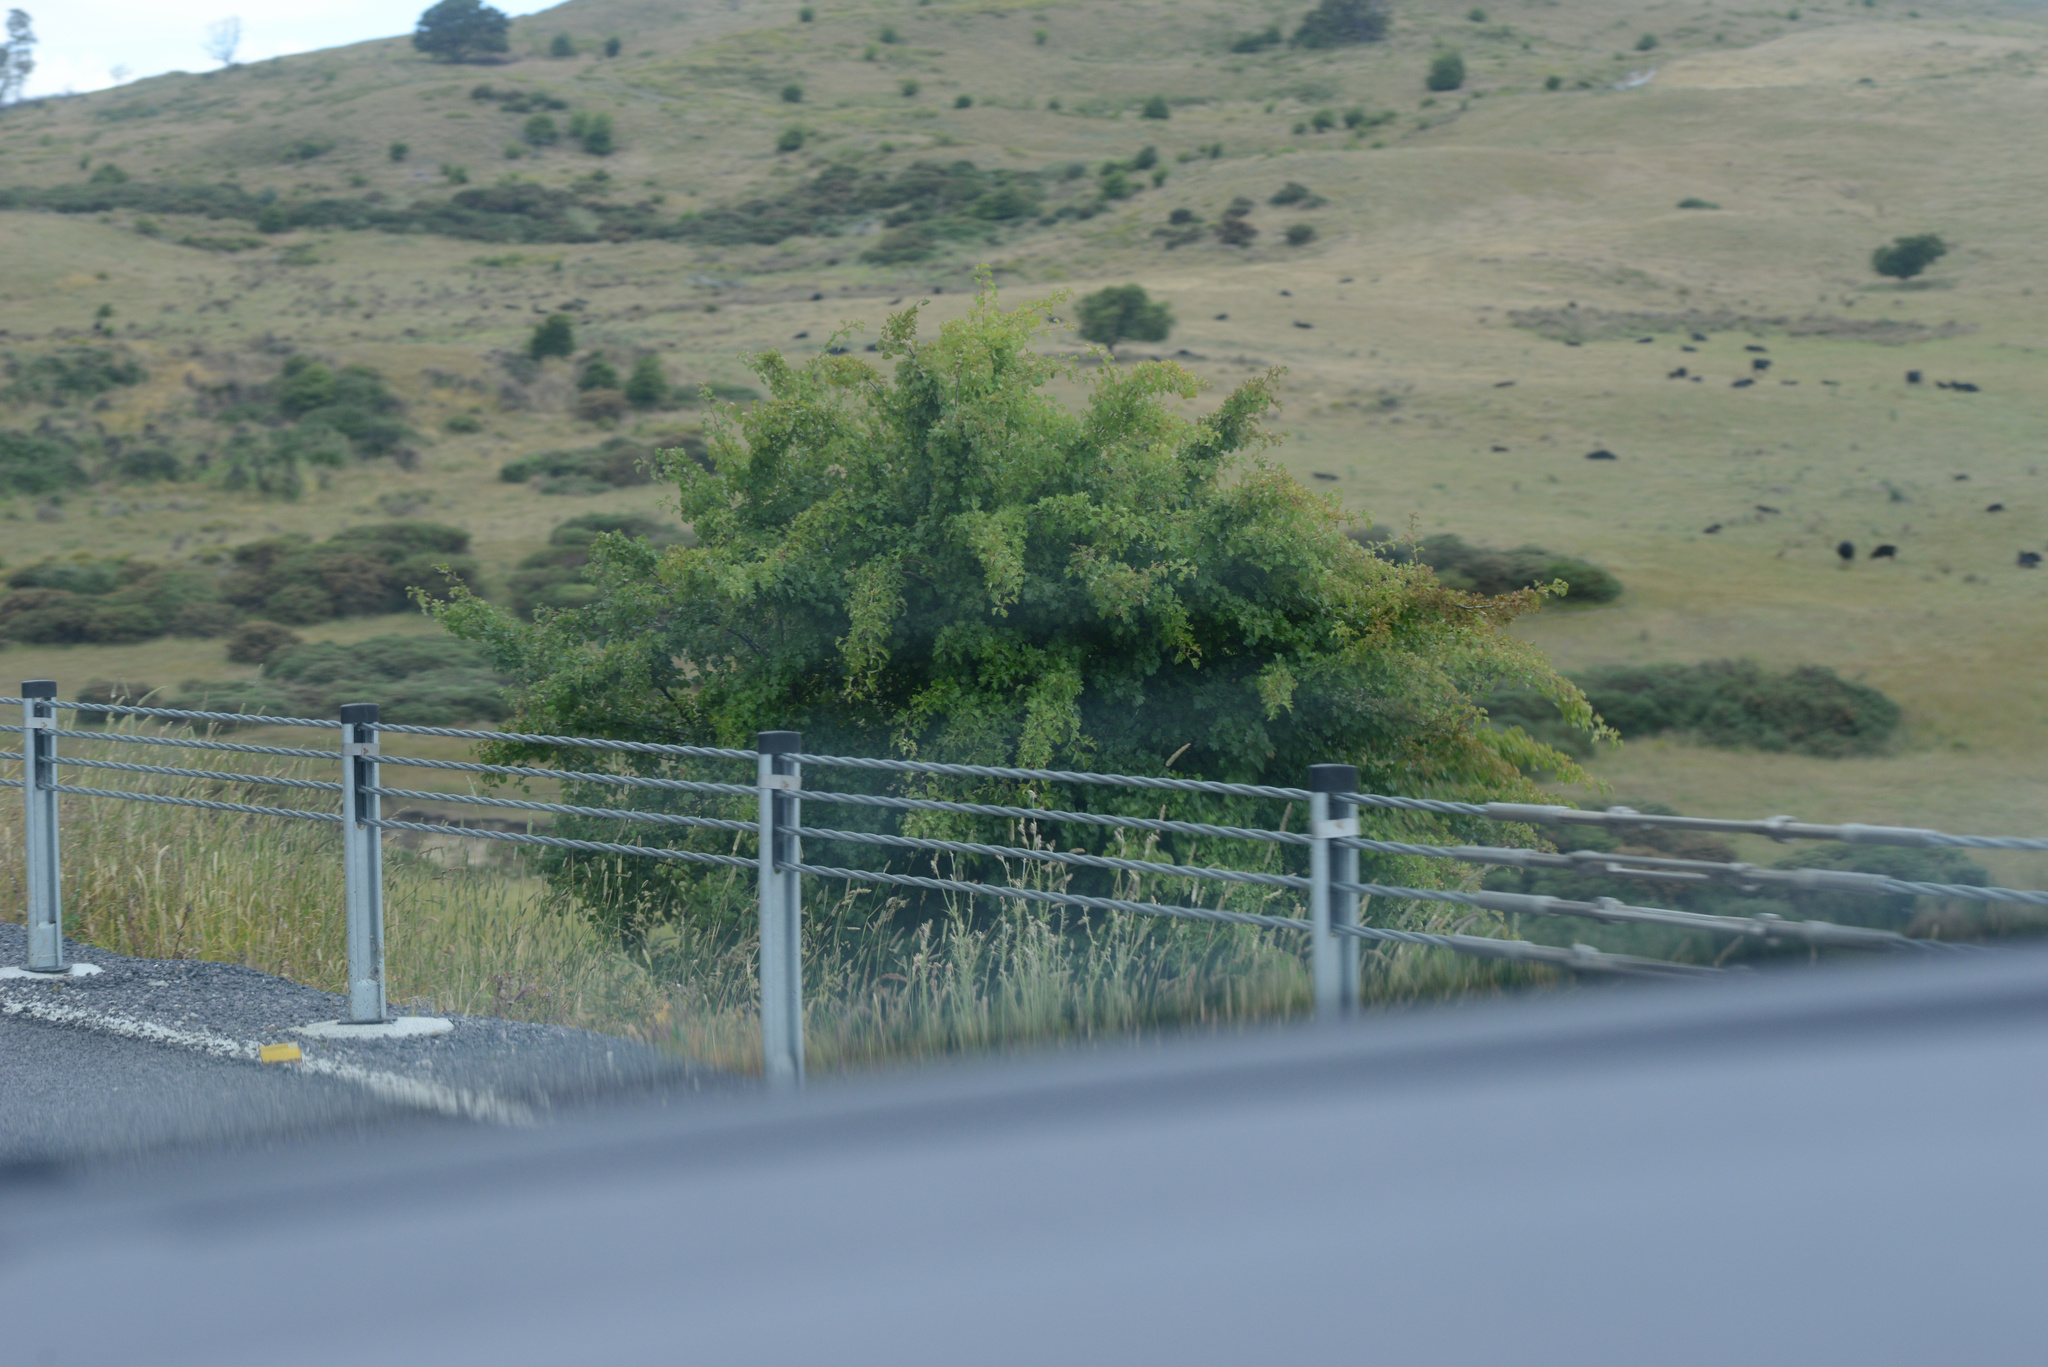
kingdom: Plantae
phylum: Tracheophyta
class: Magnoliopsida
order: Rosales
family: Rosaceae
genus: Crataegus
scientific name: Crataegus monogyna
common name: Hawthorn
